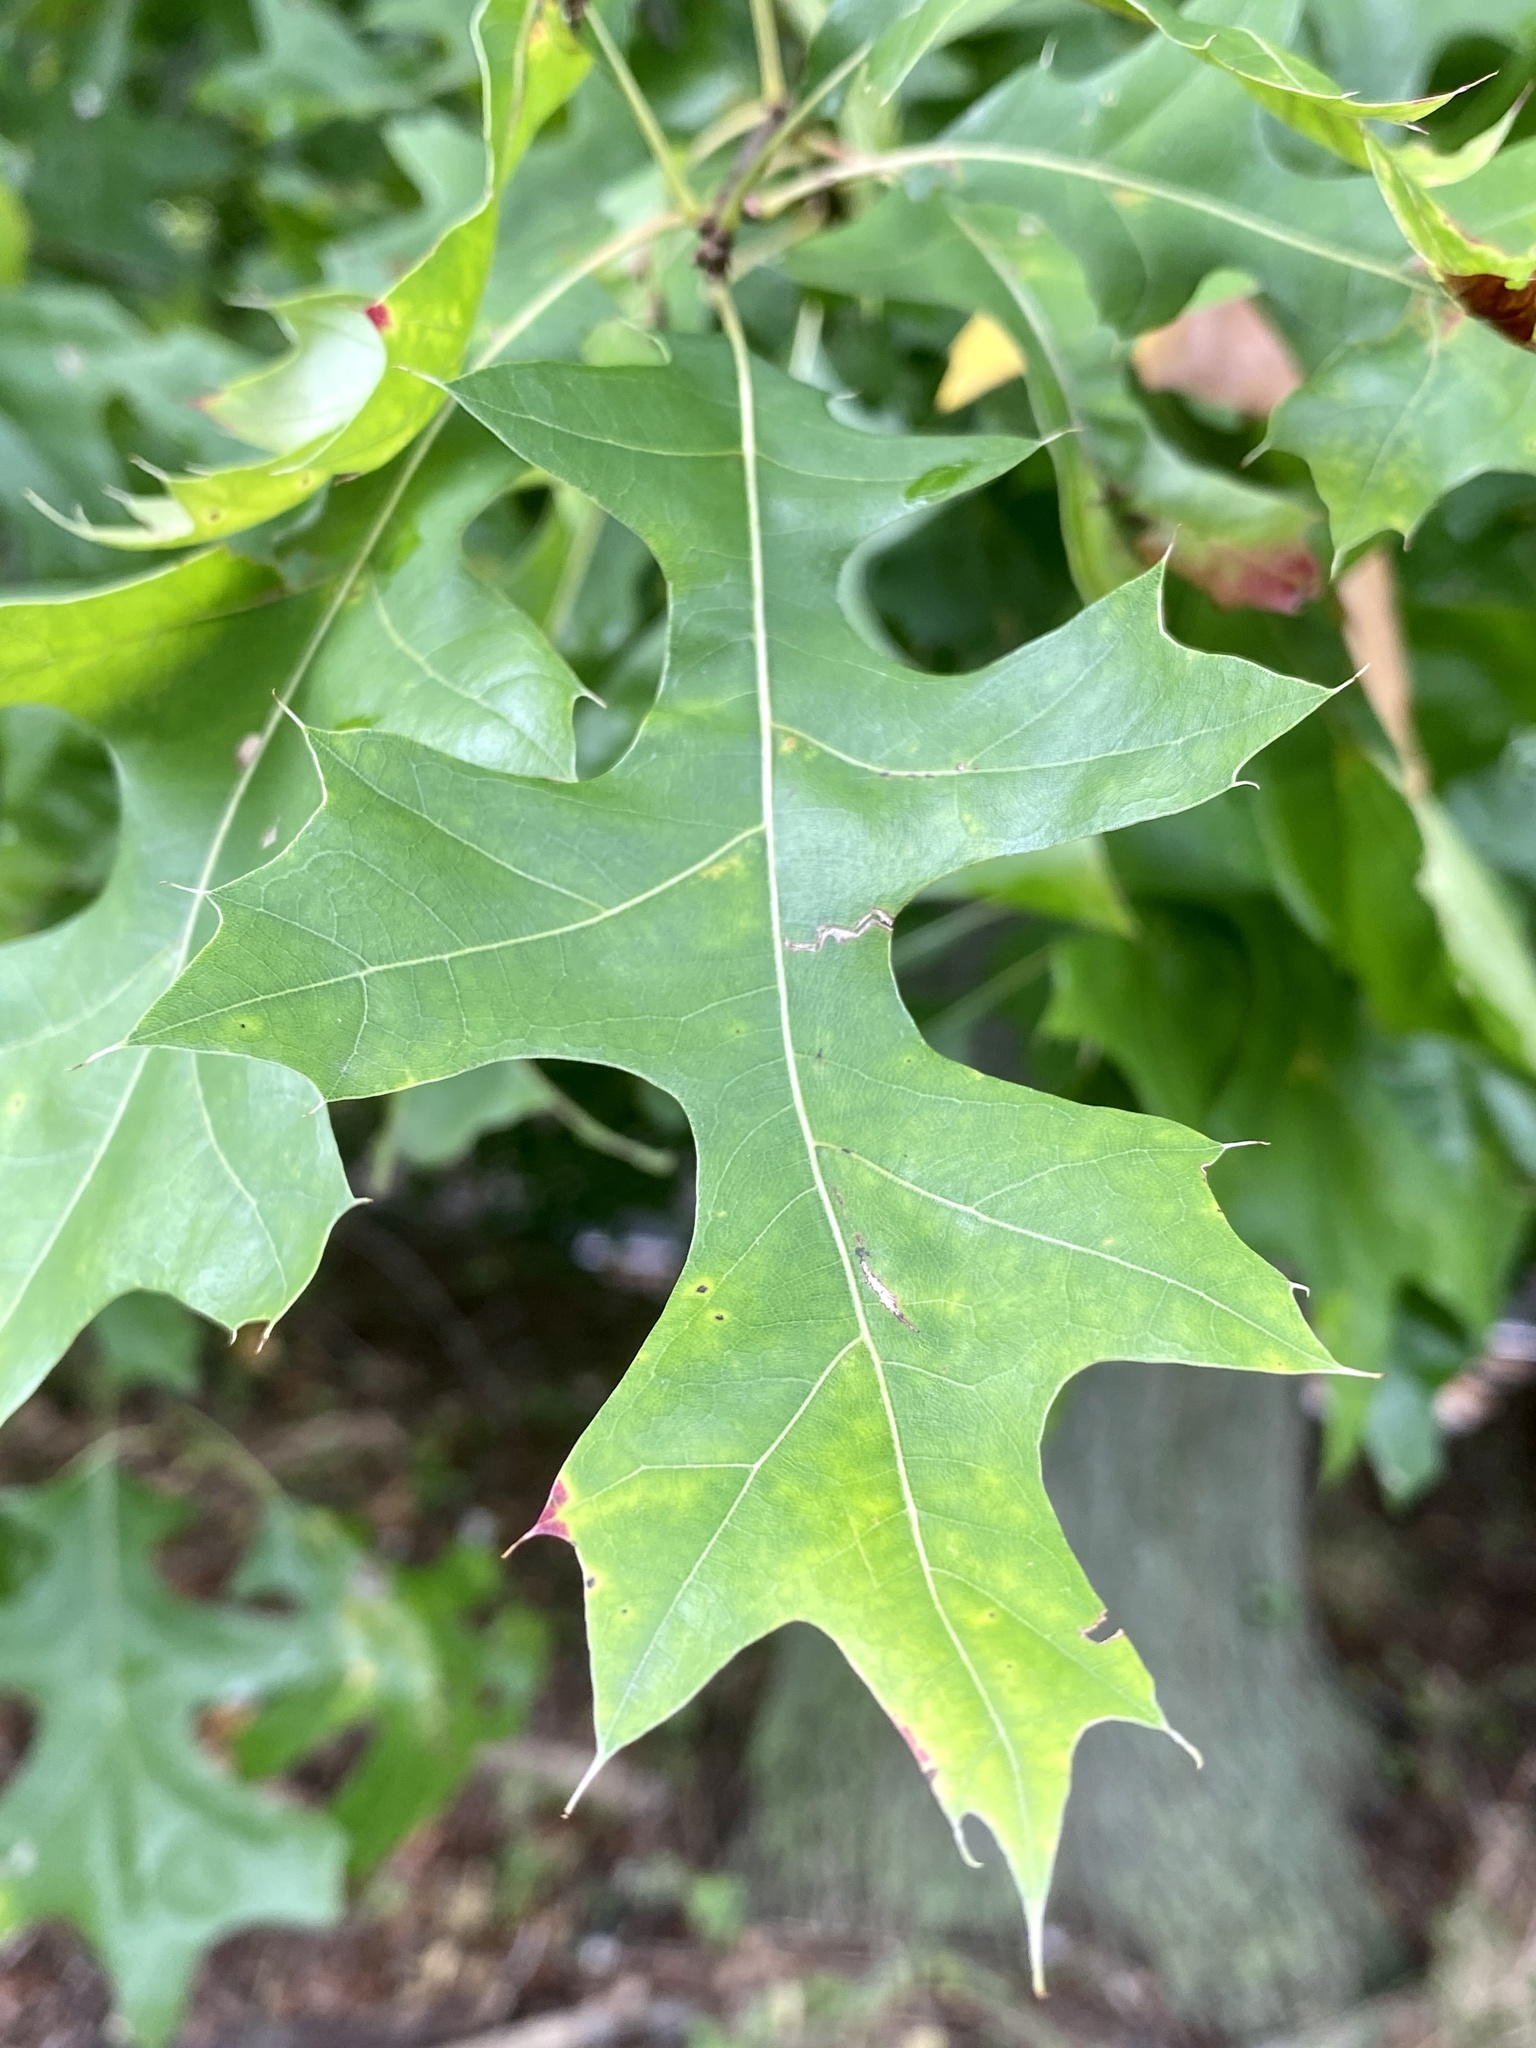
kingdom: Plantae
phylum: Tracheophyta
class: Magnoliopsida
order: Fagales
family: Fagaceae
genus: Quercus
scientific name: Quercus palustris
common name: Pin oak
